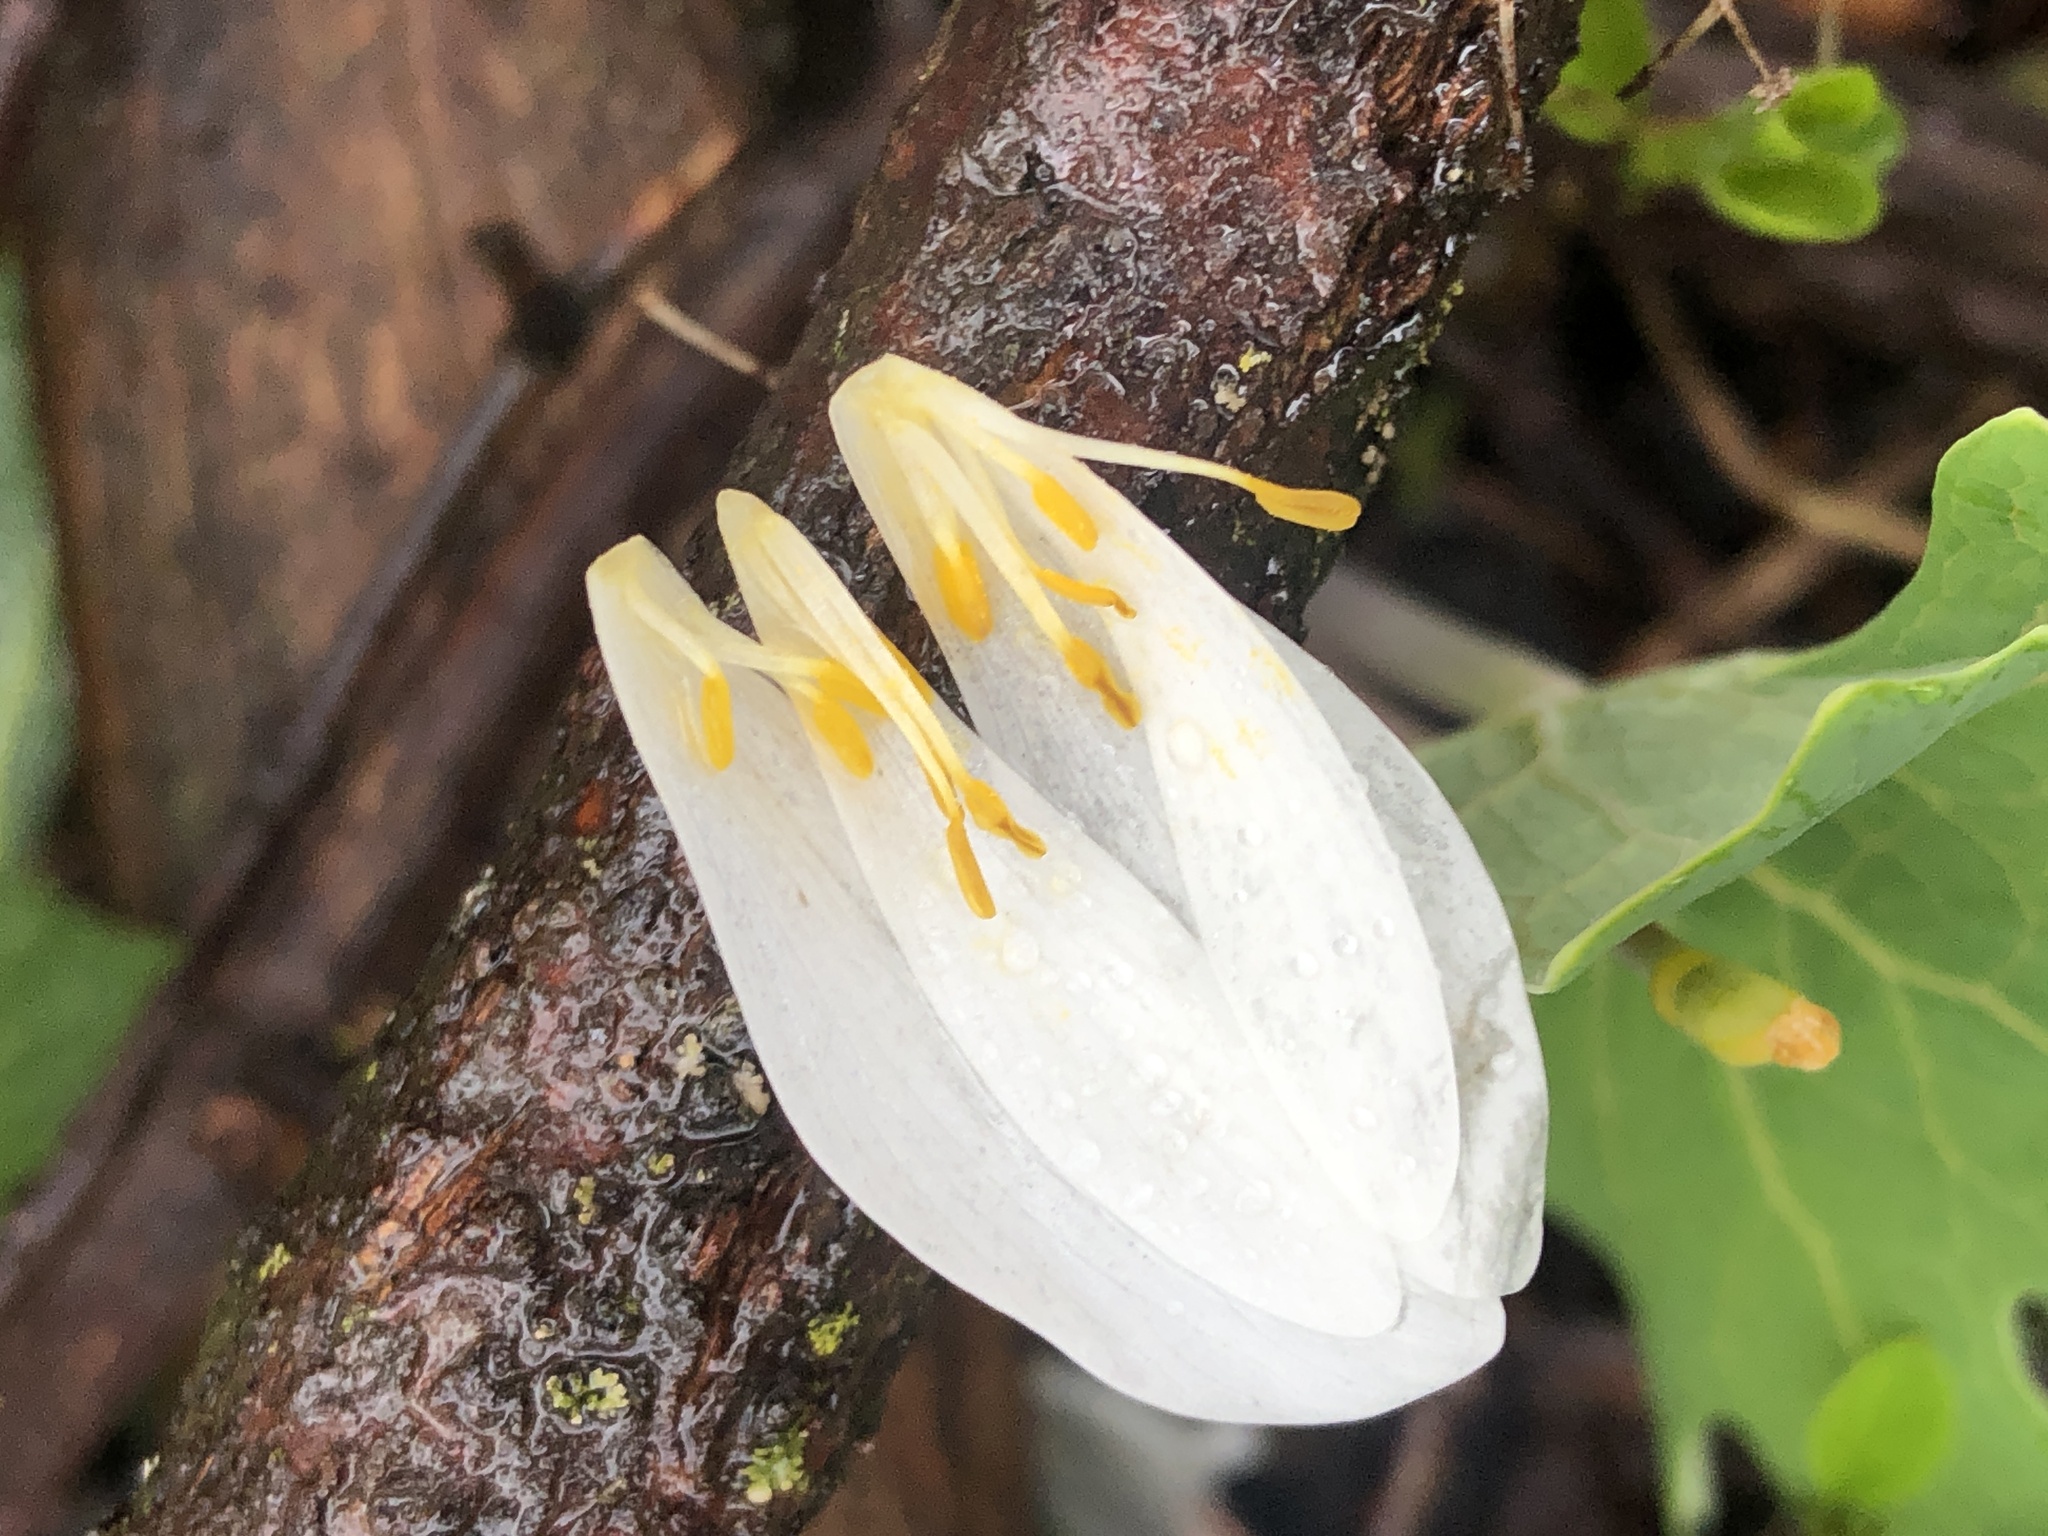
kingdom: Plantae
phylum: Tracheophyta
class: Magnoliopsida
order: Ranunculales
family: Papaveraceae
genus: Sanguinaria
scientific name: Sanguinaria canadensis
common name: Bloodroot
